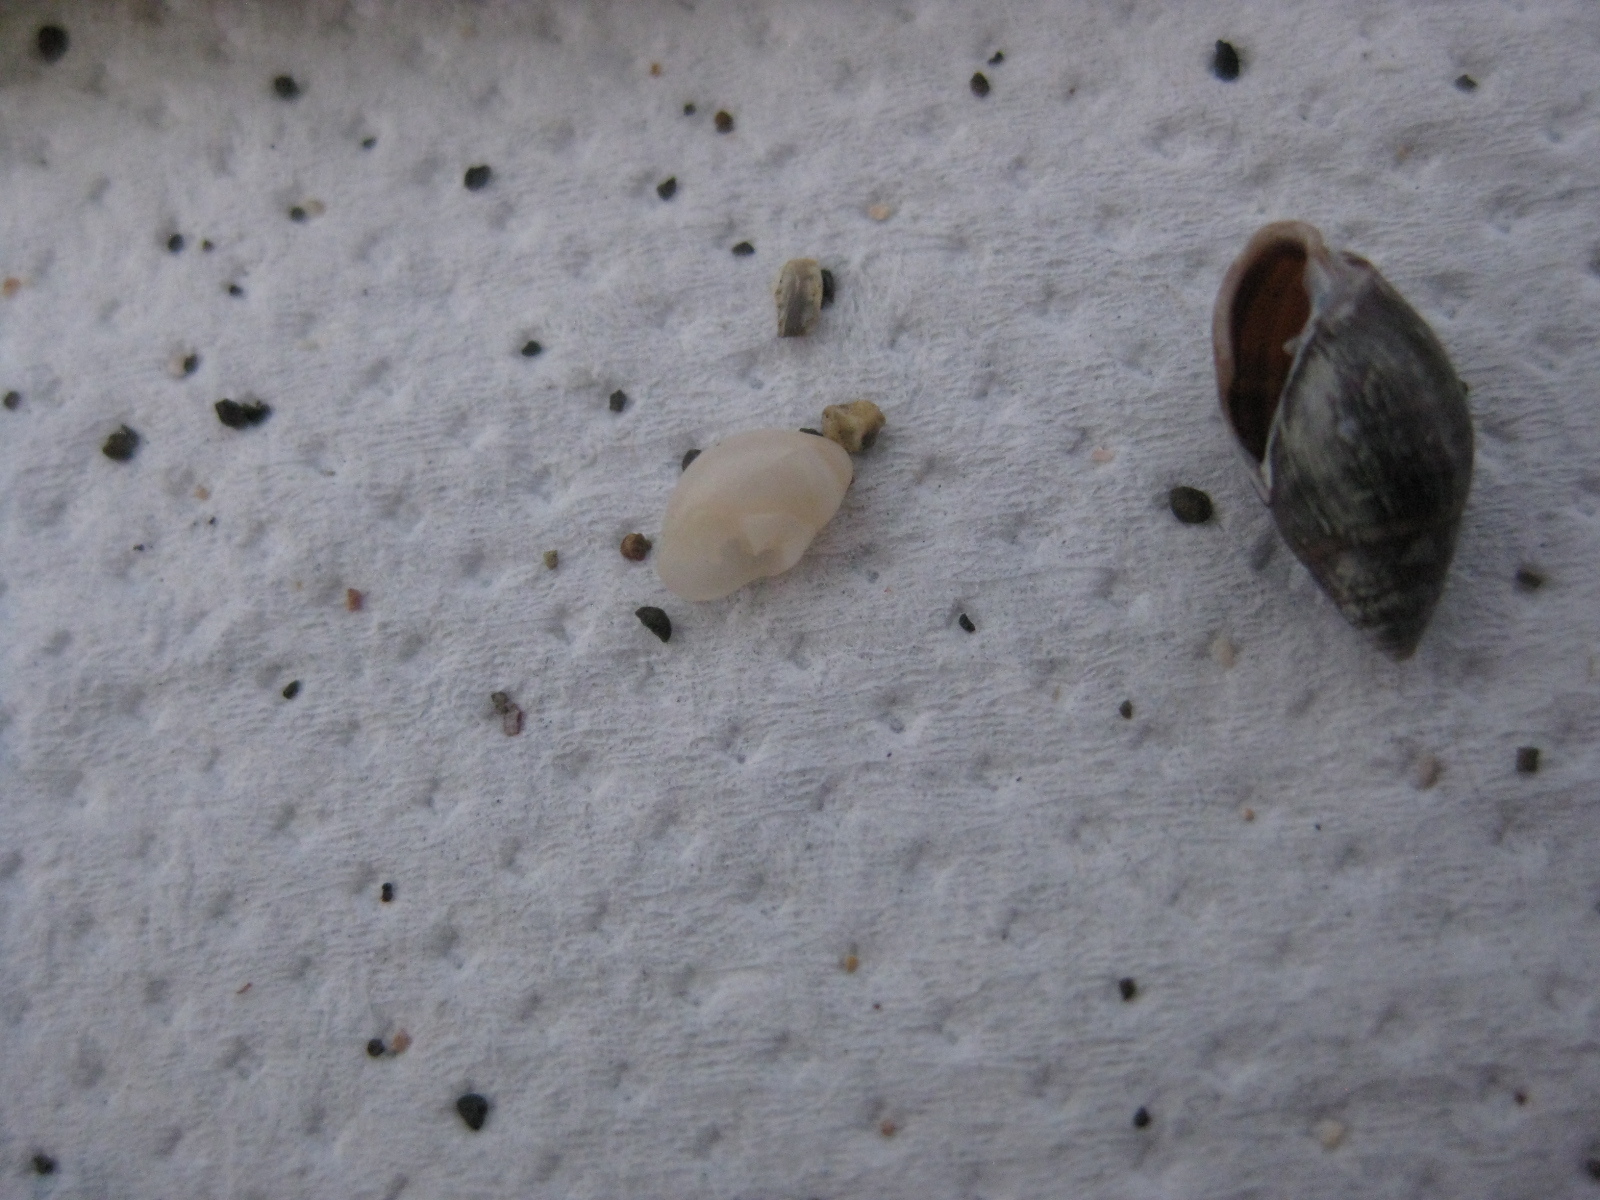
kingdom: Animalia
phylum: Mollusca
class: Gastropoda
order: Ellobiida
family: Ellobiidae
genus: Marinula
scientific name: Marinula filholi
